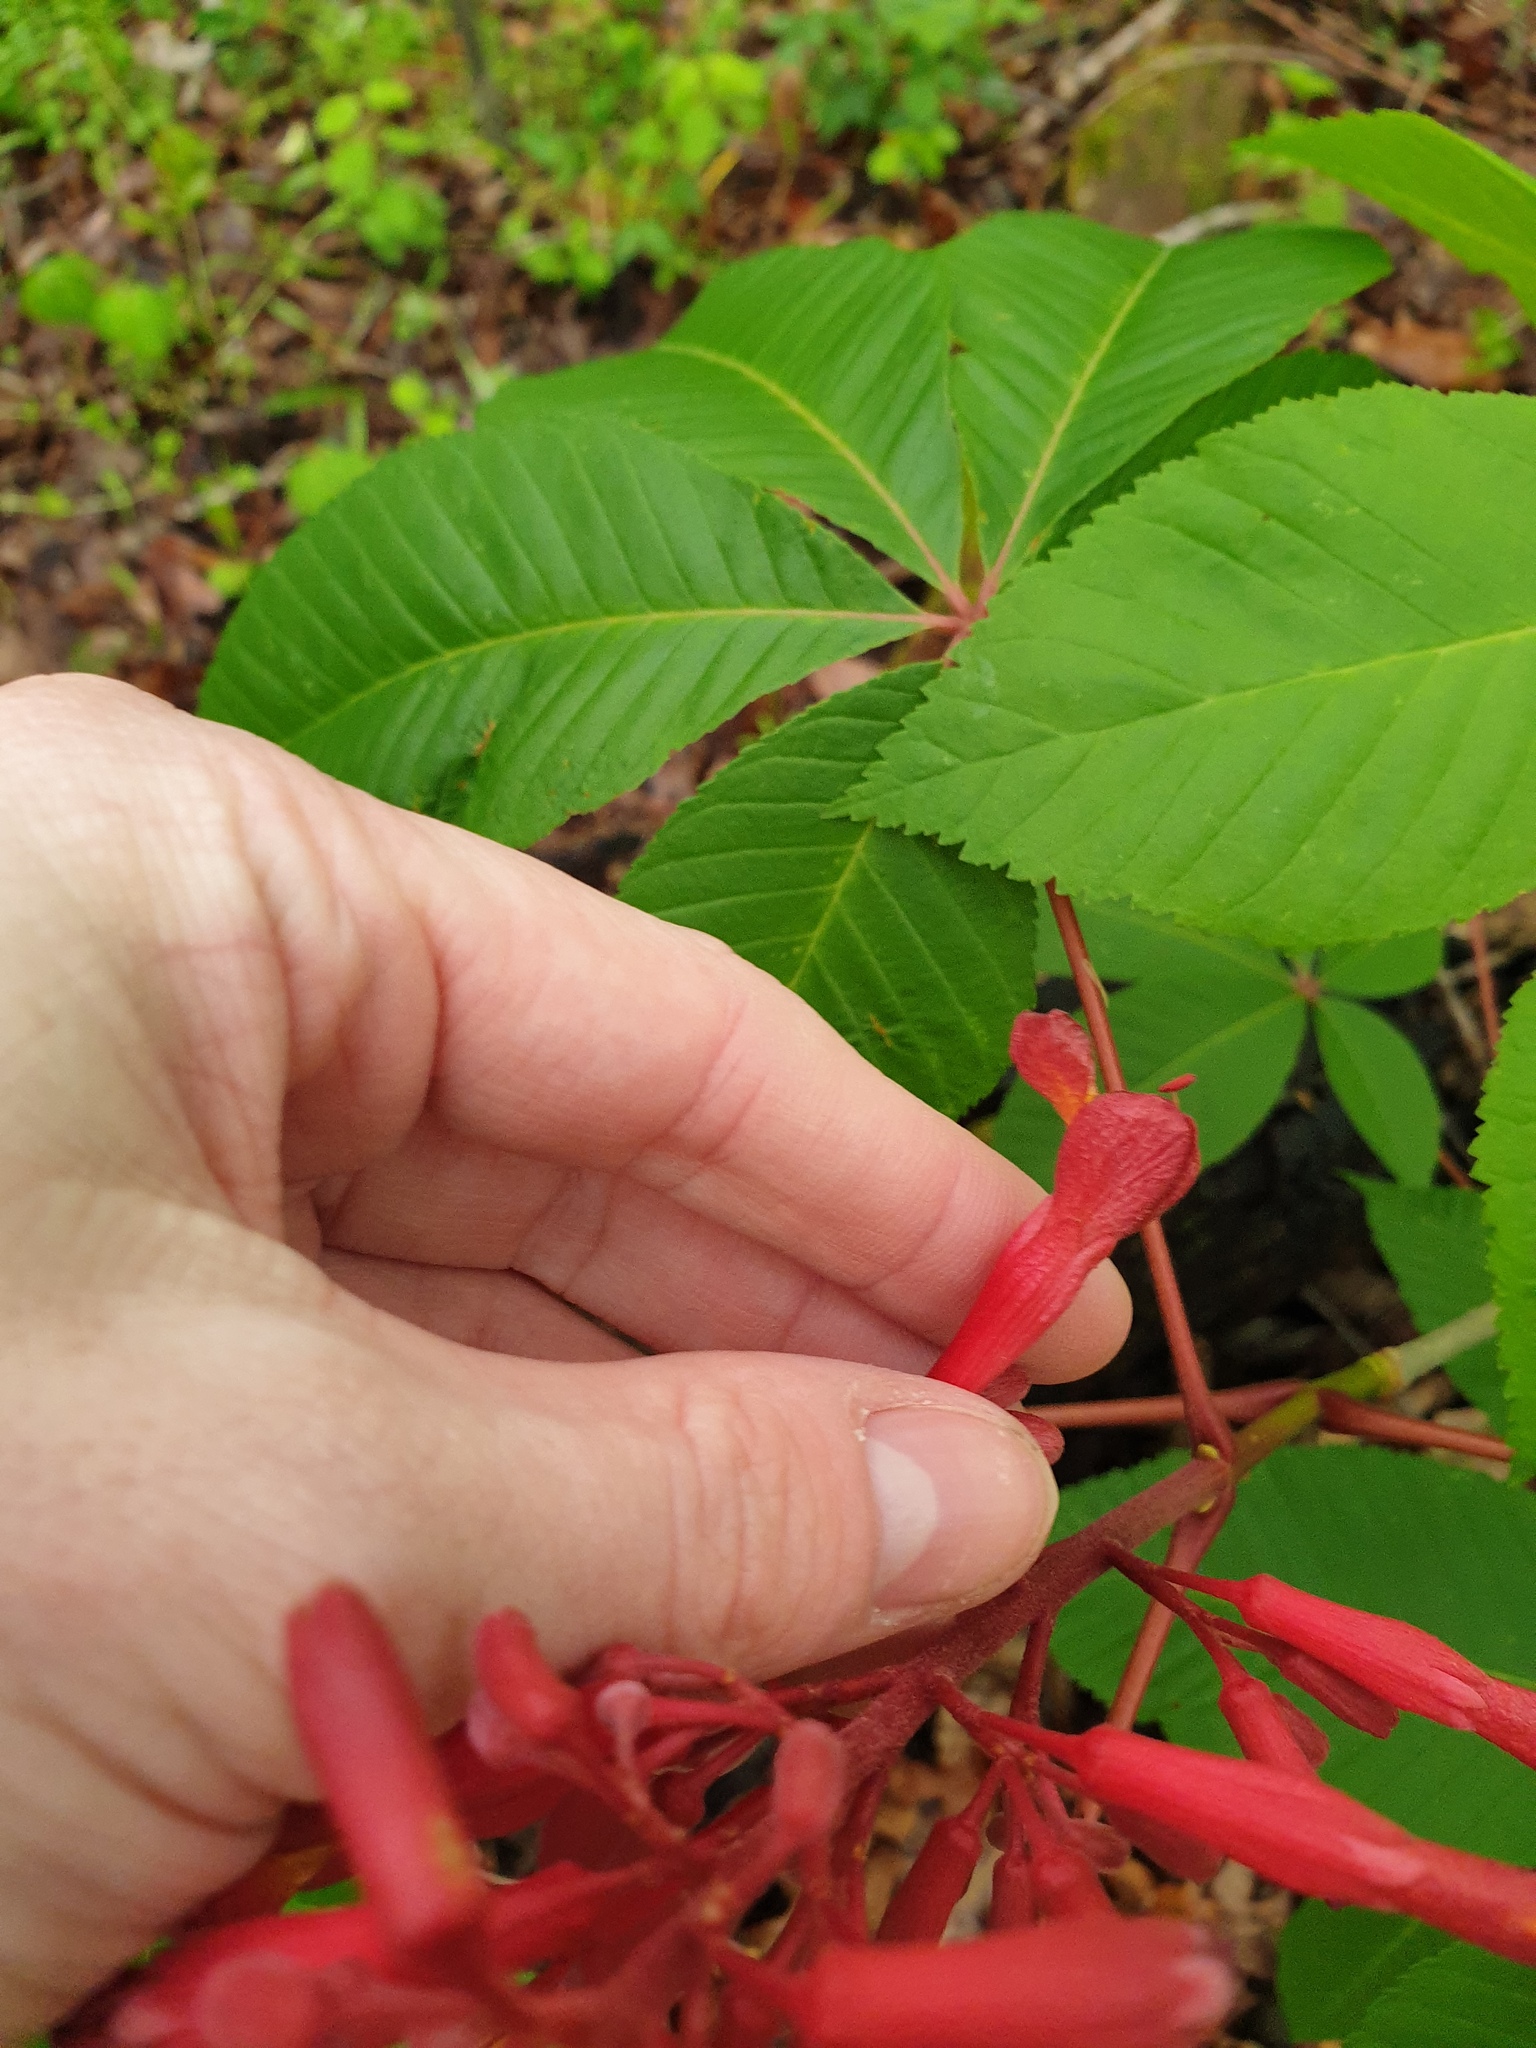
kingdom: Plantae
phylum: Tracheophyta
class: Magnoliopsida
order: Sapindales
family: Sapindaceae
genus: Aesculus
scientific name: Aesculus pavia
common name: Red buckeye
